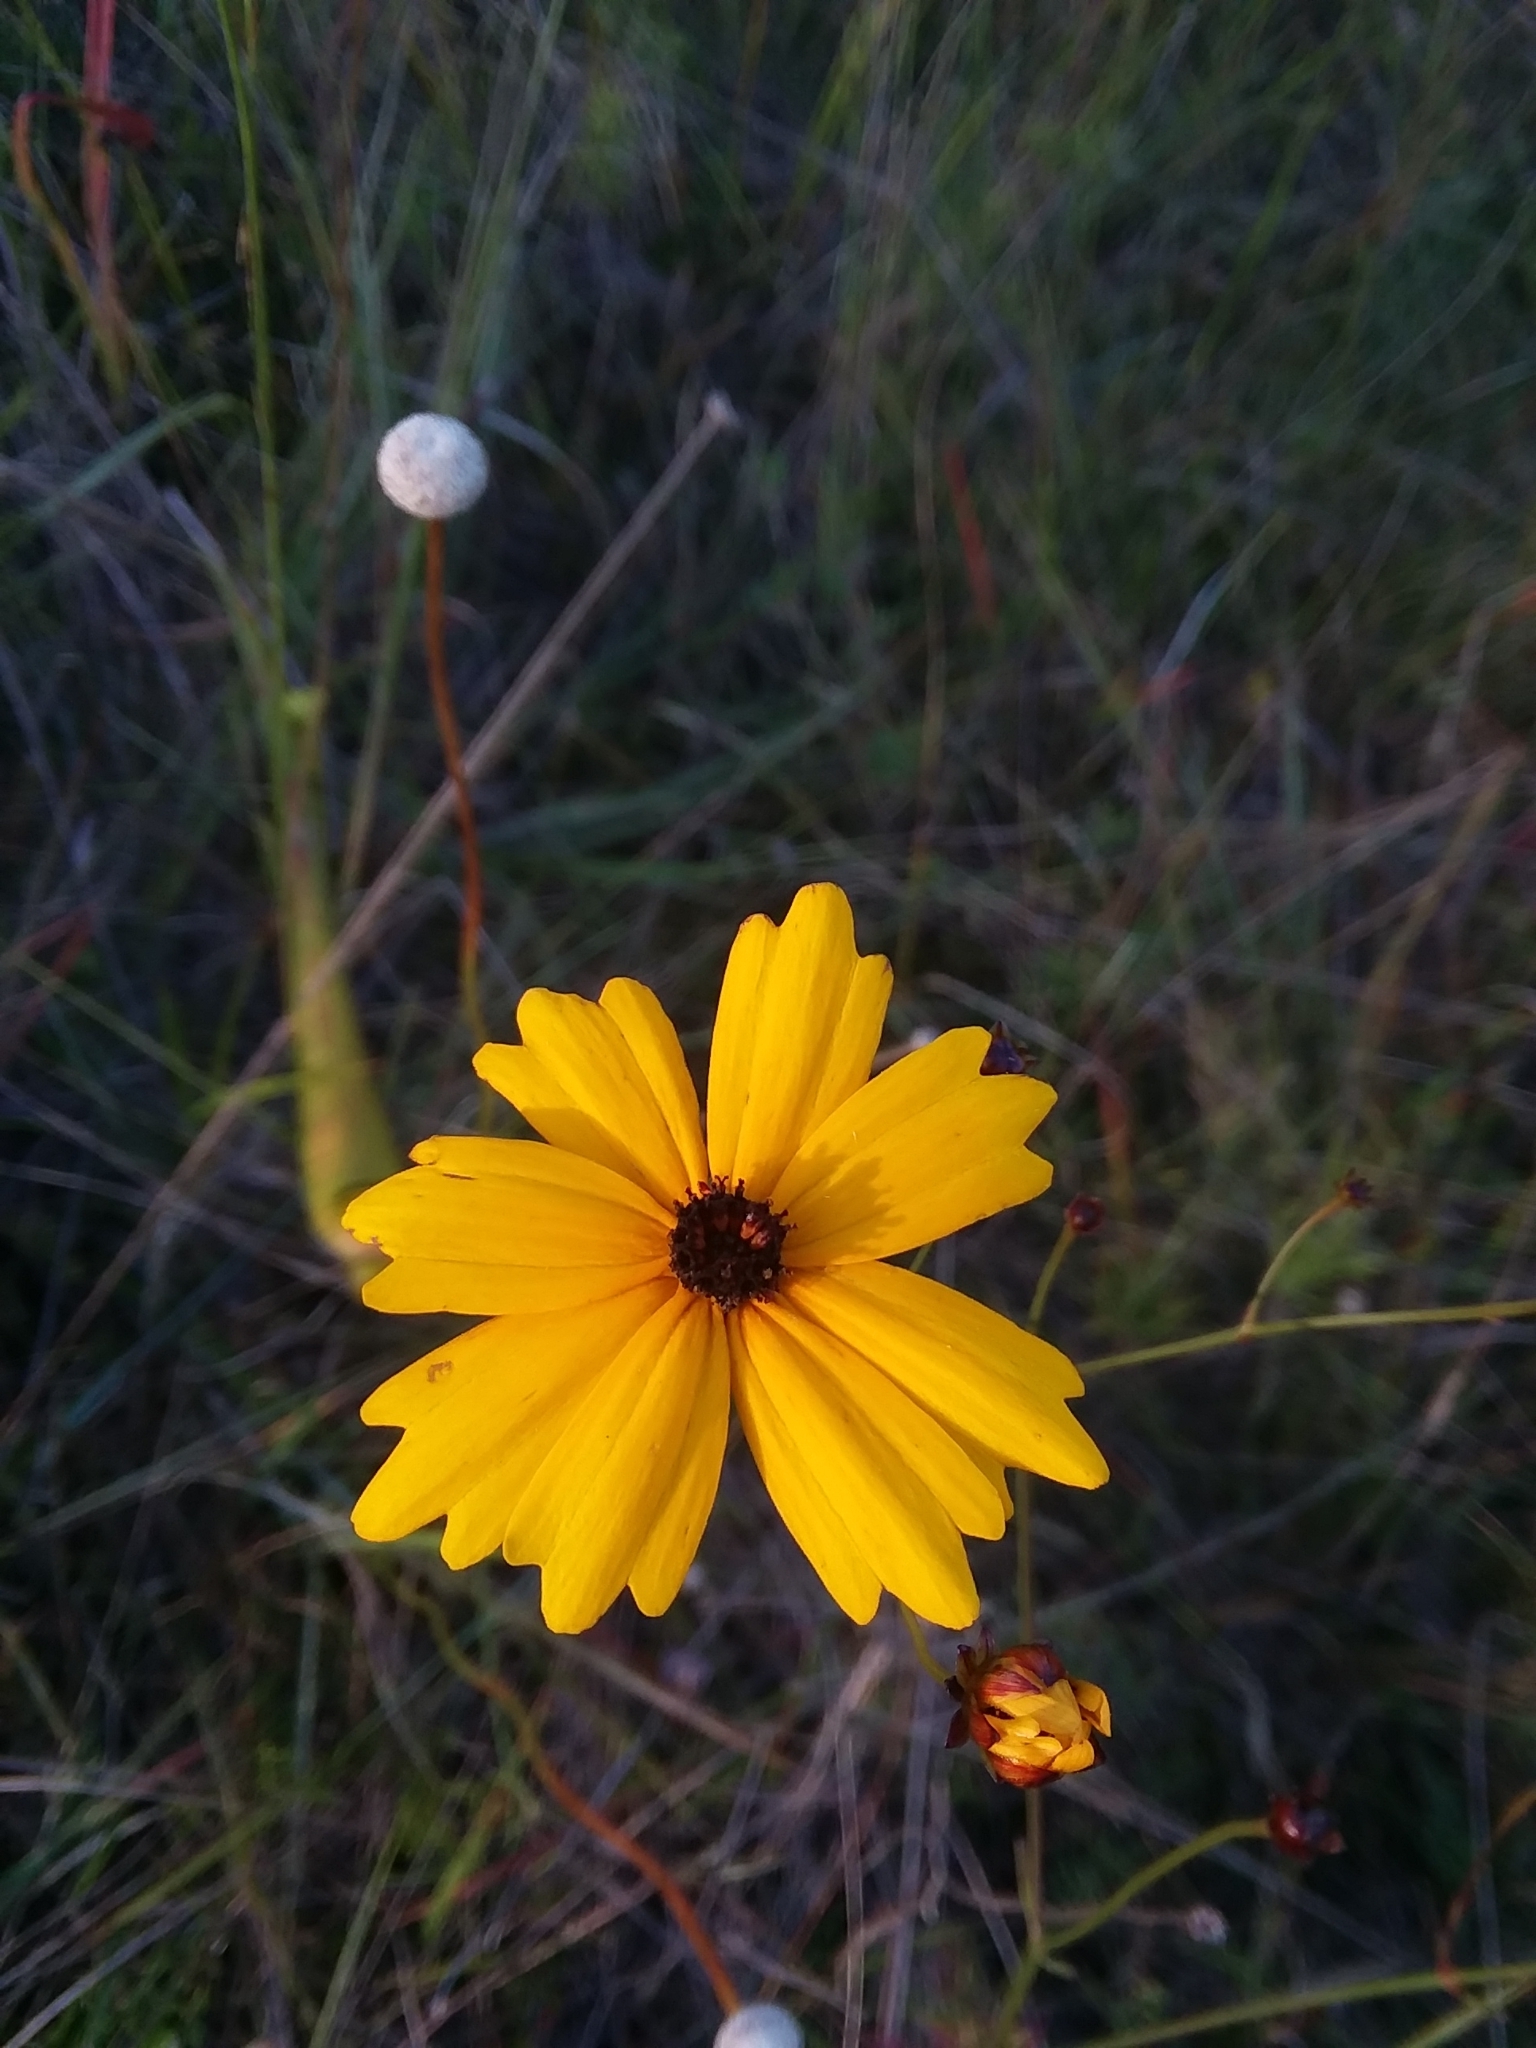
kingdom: Plantae
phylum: Tracheophyta
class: Magnoliopsida
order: Asterales
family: Asteraceae
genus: Coreopsis
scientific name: Coreopsis gladiata
